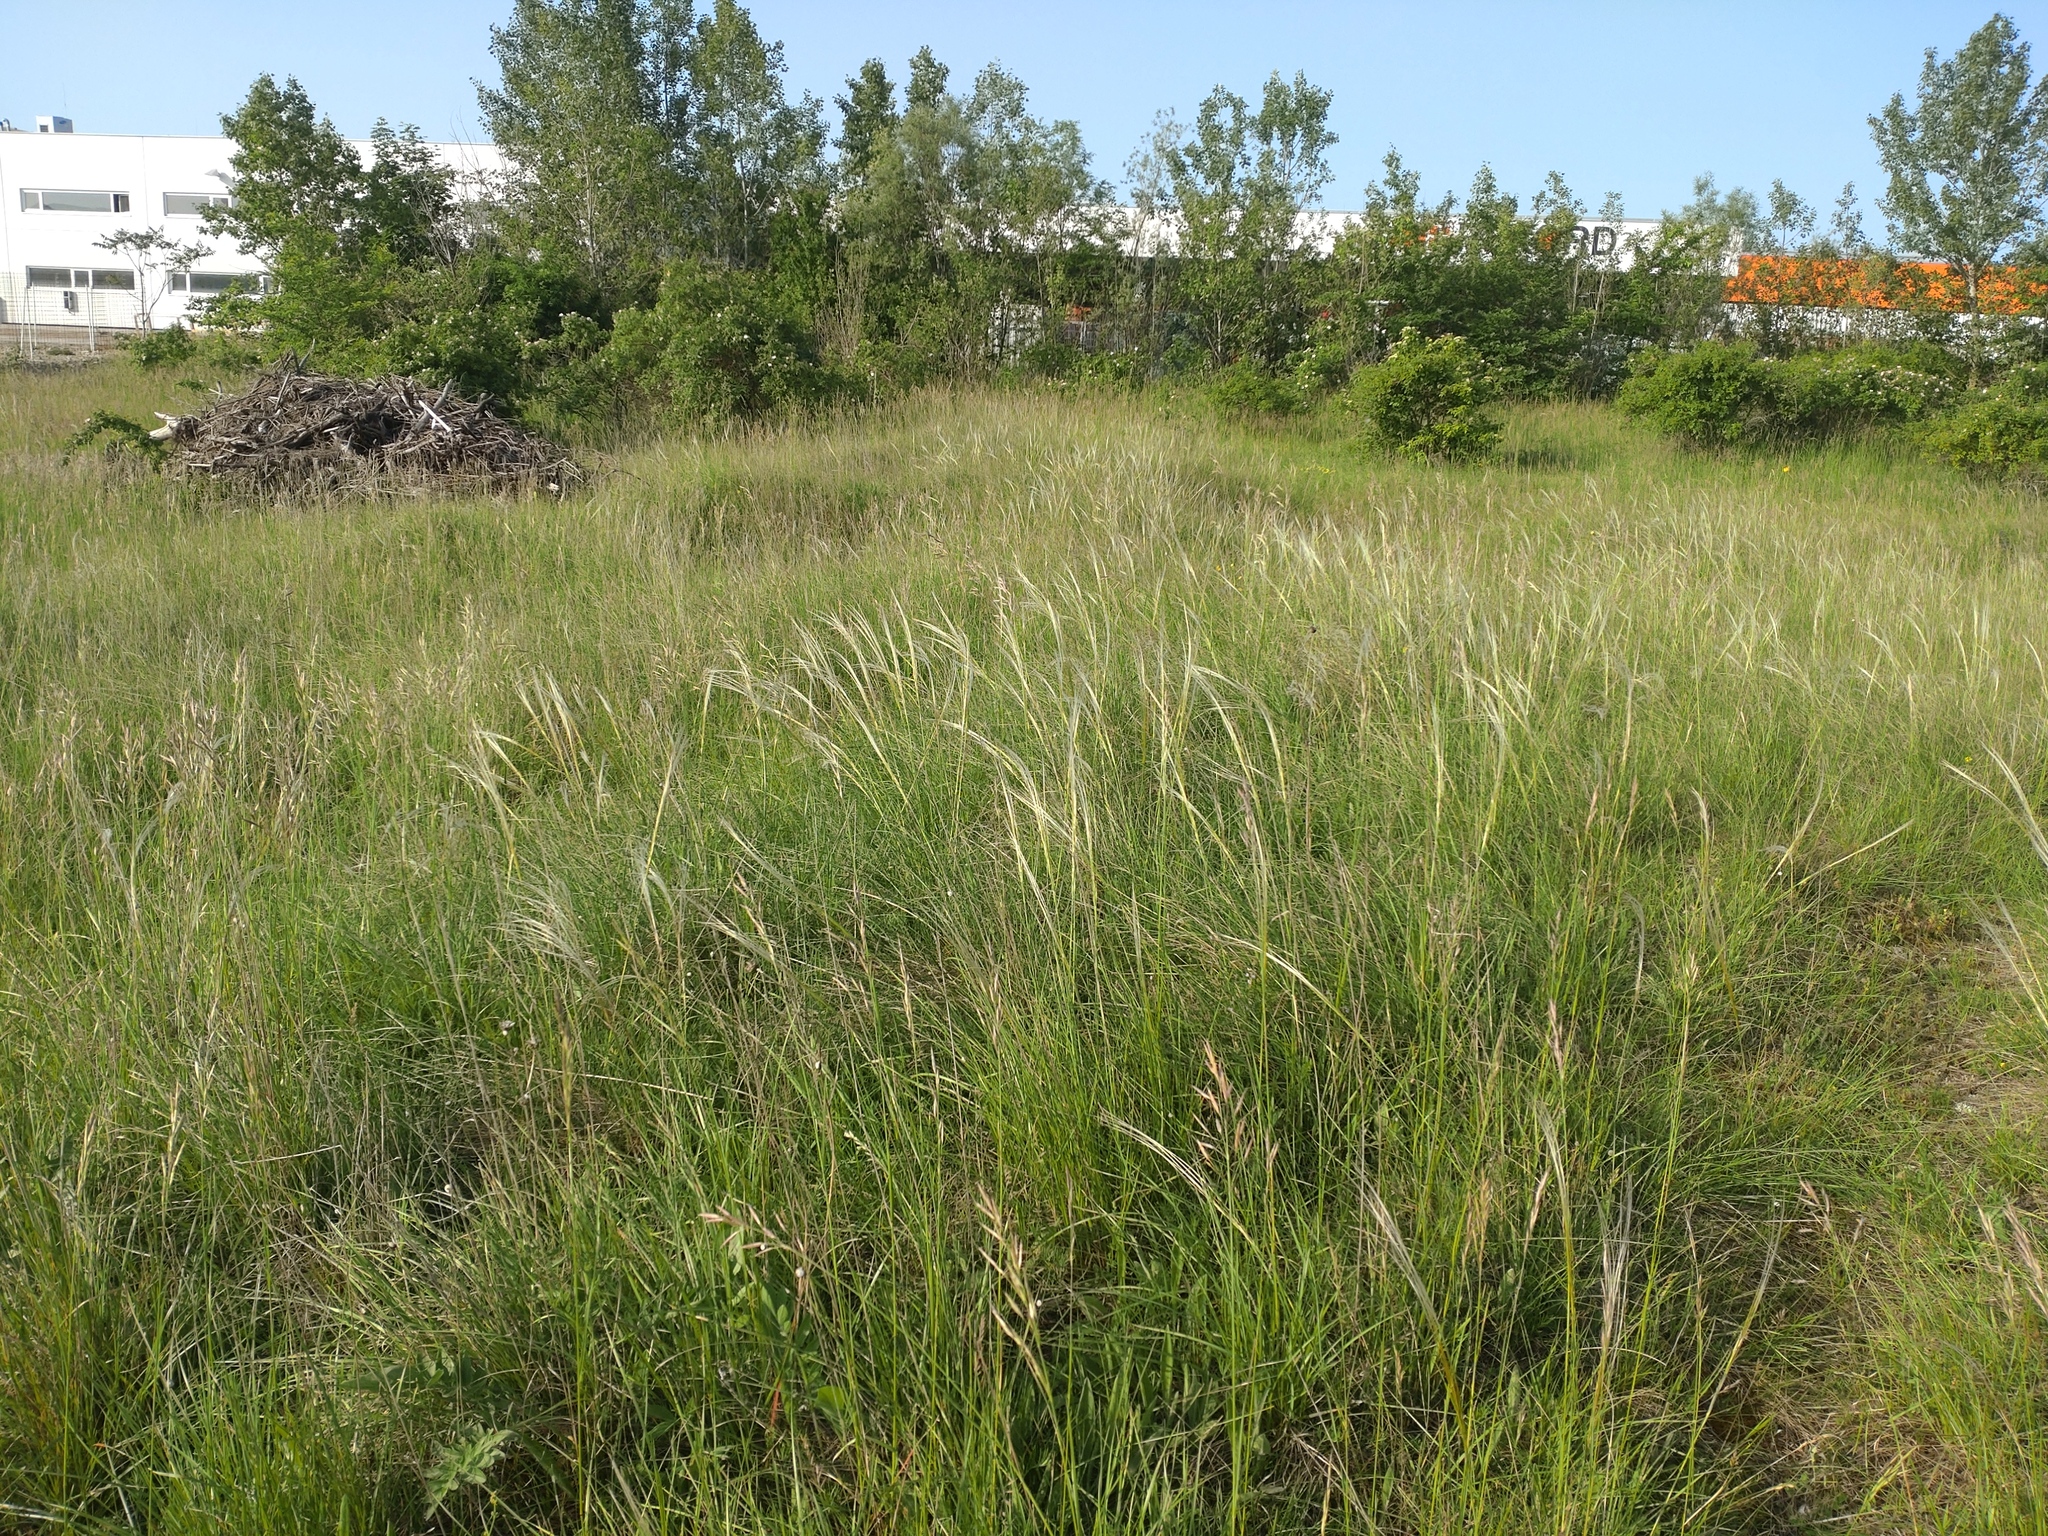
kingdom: Plantae
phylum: Tracheophyta
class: Liliopsida
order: Poales
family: Poaceae
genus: Stipa
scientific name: Stipa pennata
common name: European feather grass
